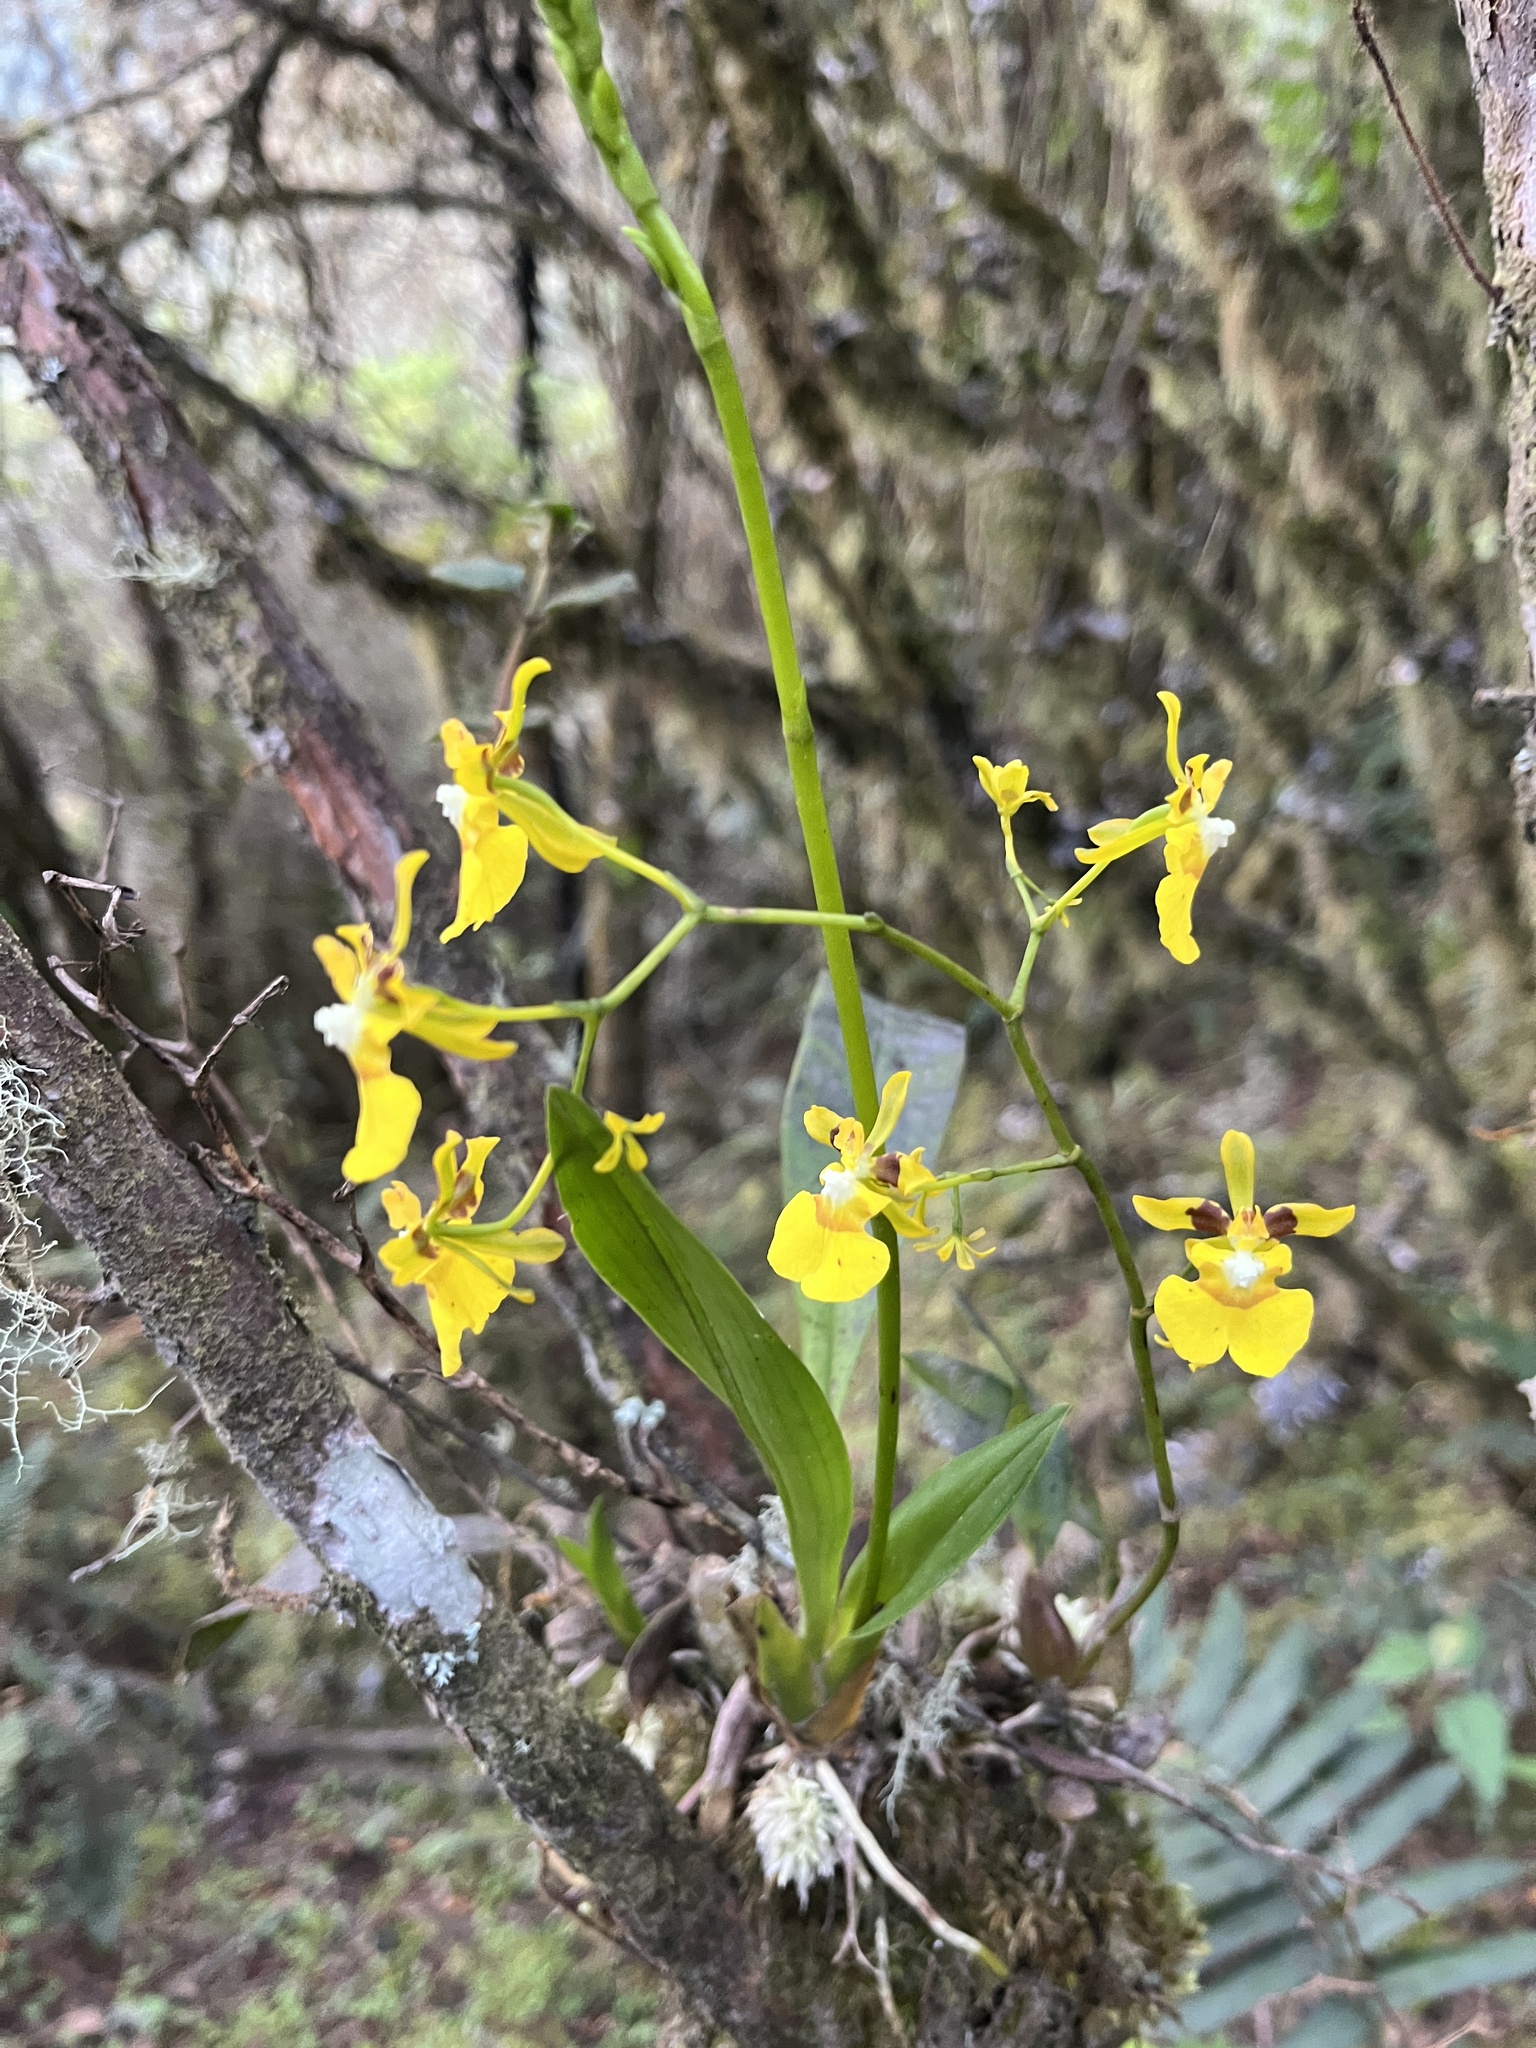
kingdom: Plantae
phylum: Tracheophyta
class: Liliopsida
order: Asparagales
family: Orchidaceae
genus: Oncidium
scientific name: Oncidium cultratum
